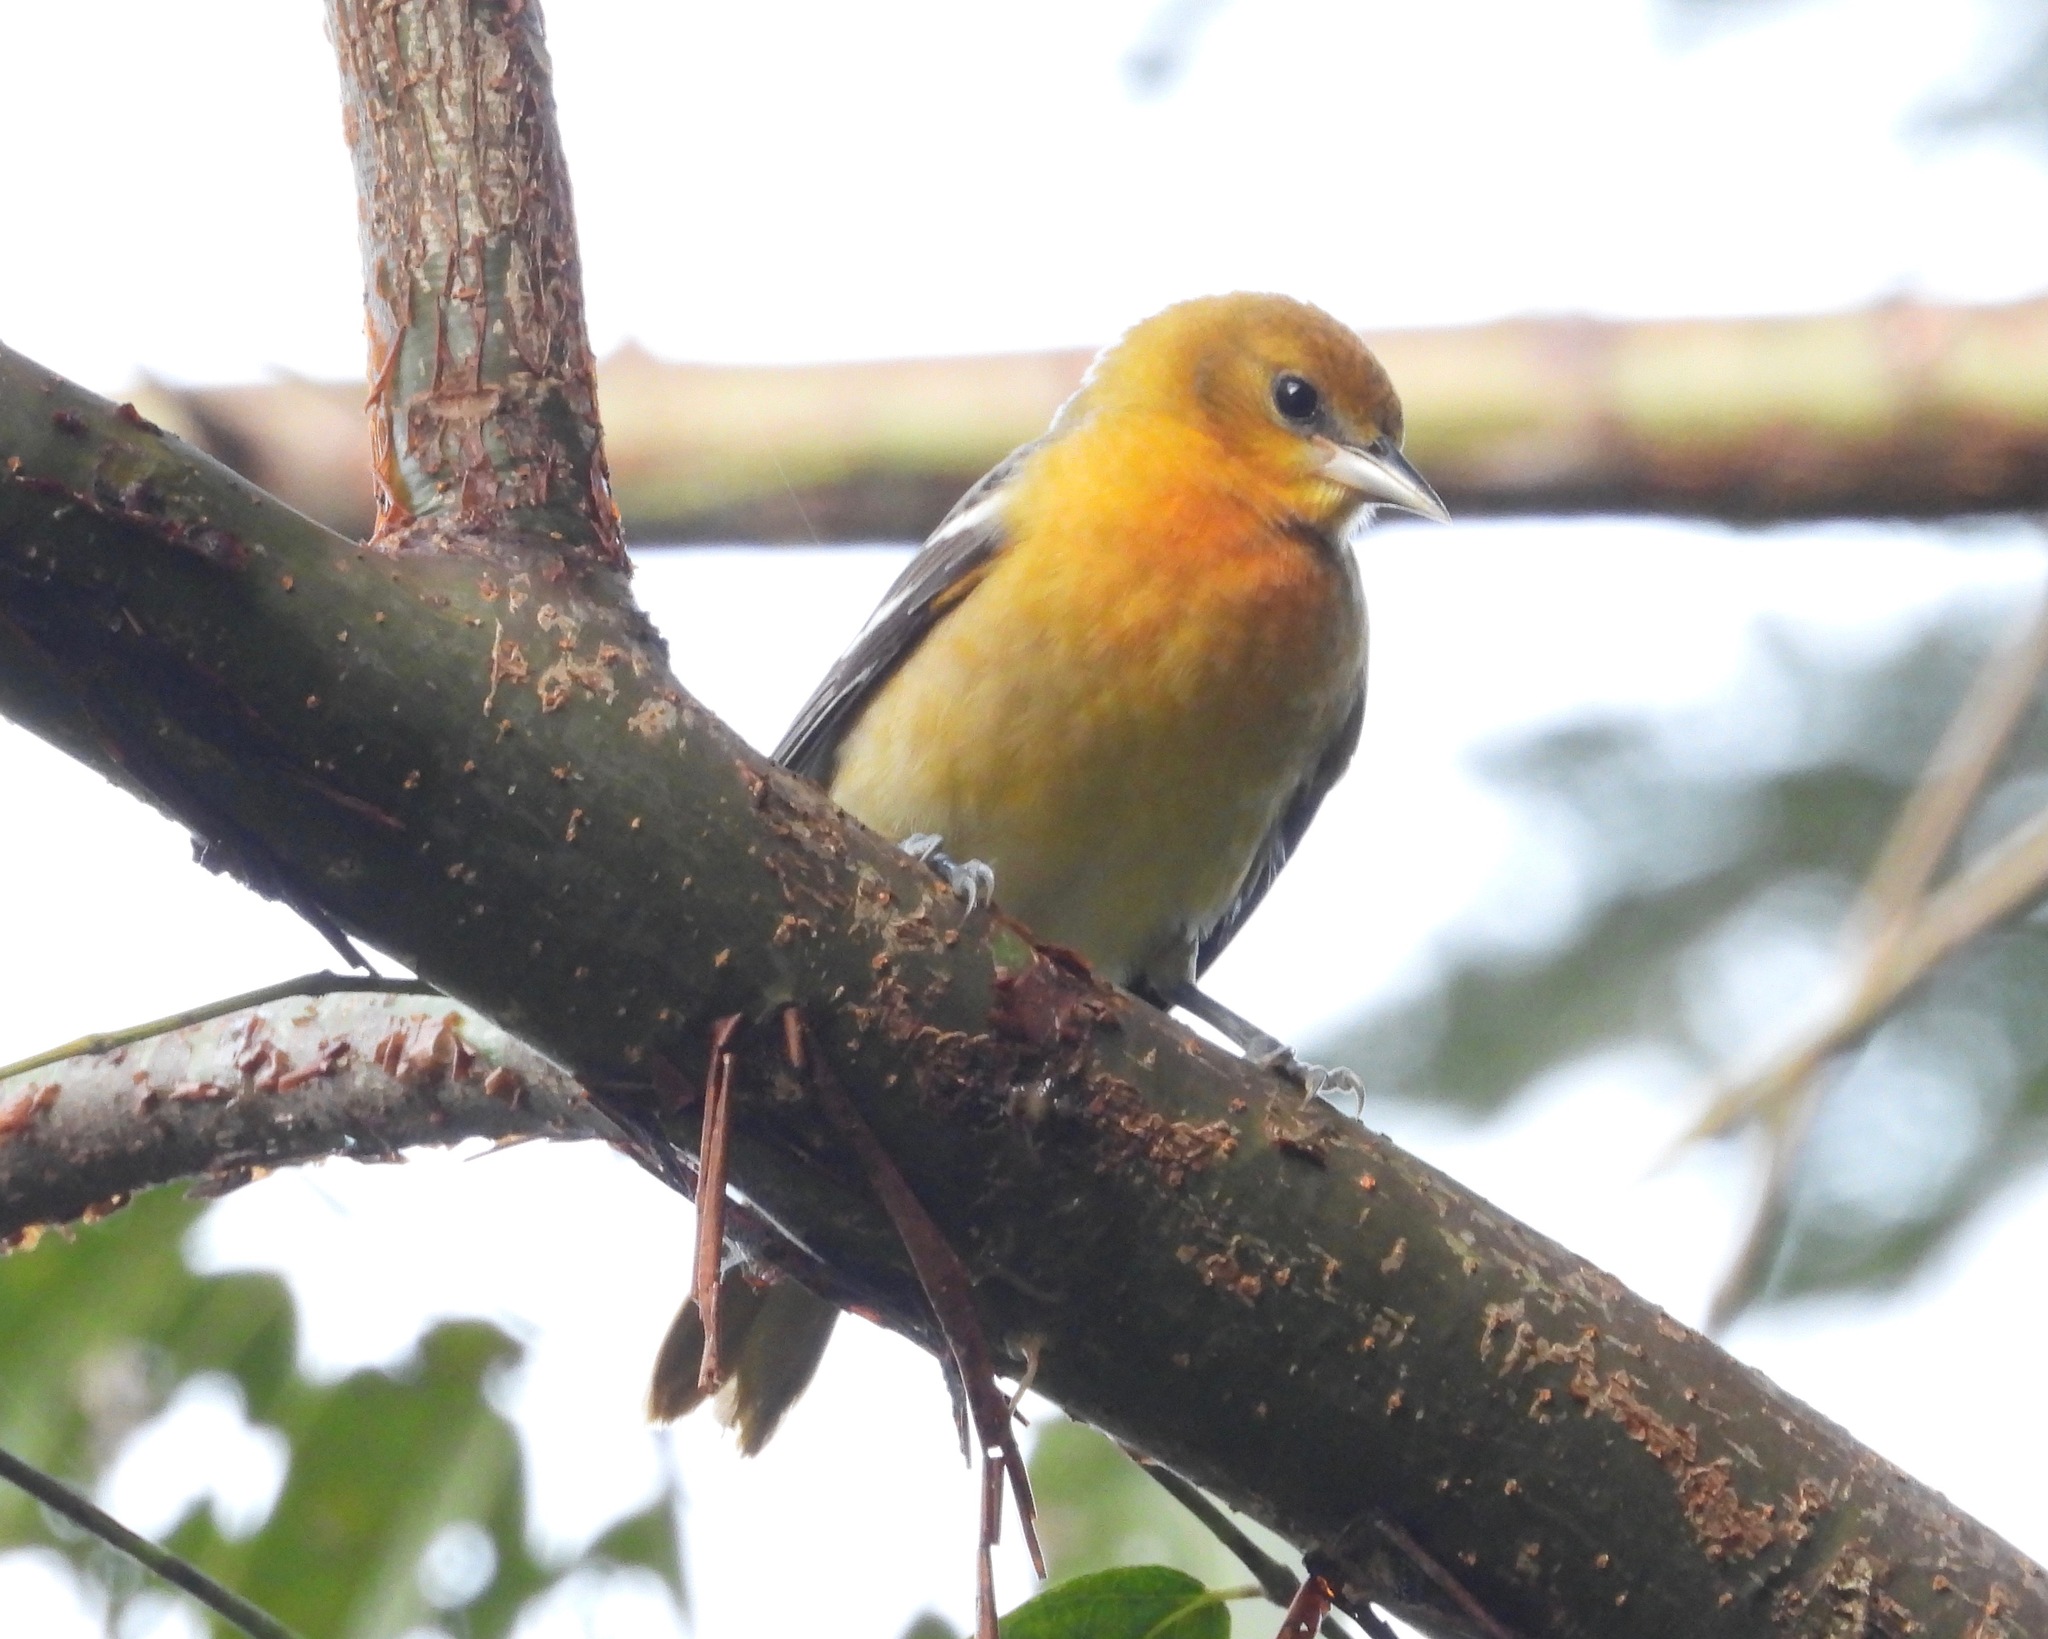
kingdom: Animalia
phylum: Chordata
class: Aves
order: Passeriformes
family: Icteridae
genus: Icterus
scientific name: Icterus galbula
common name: Baltimore oriole
